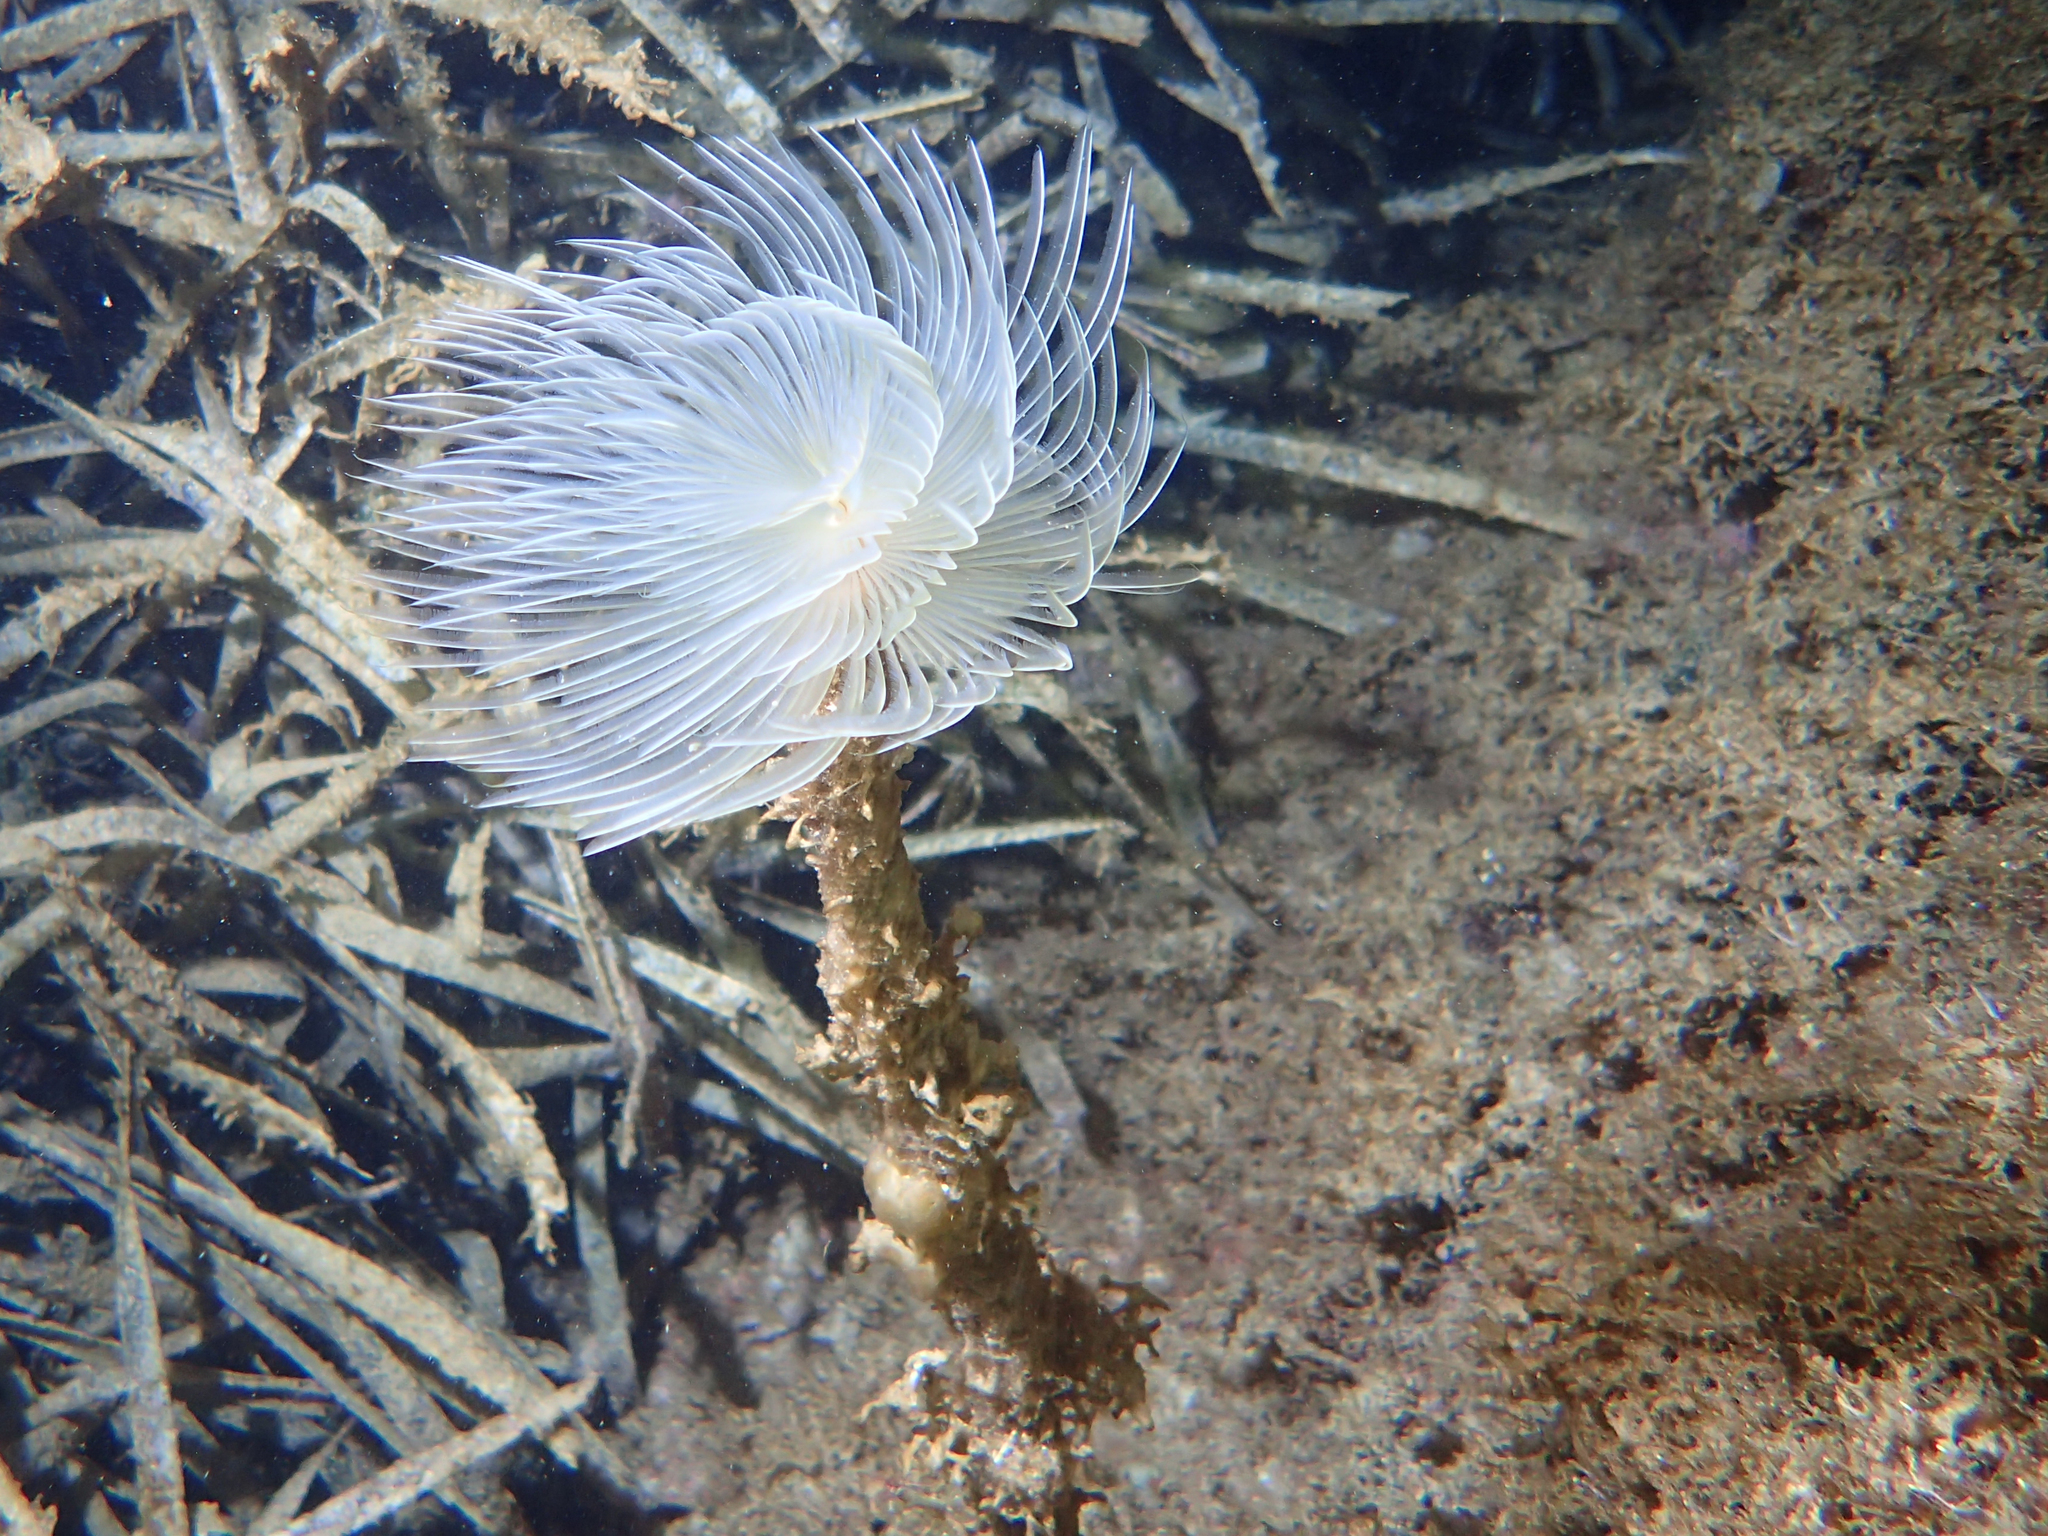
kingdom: Animalia
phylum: Annelida
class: Polychaeta
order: Sabellida
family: Sabellidae
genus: Sabella
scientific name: Sabella spallanzanii
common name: Feather duster worm
